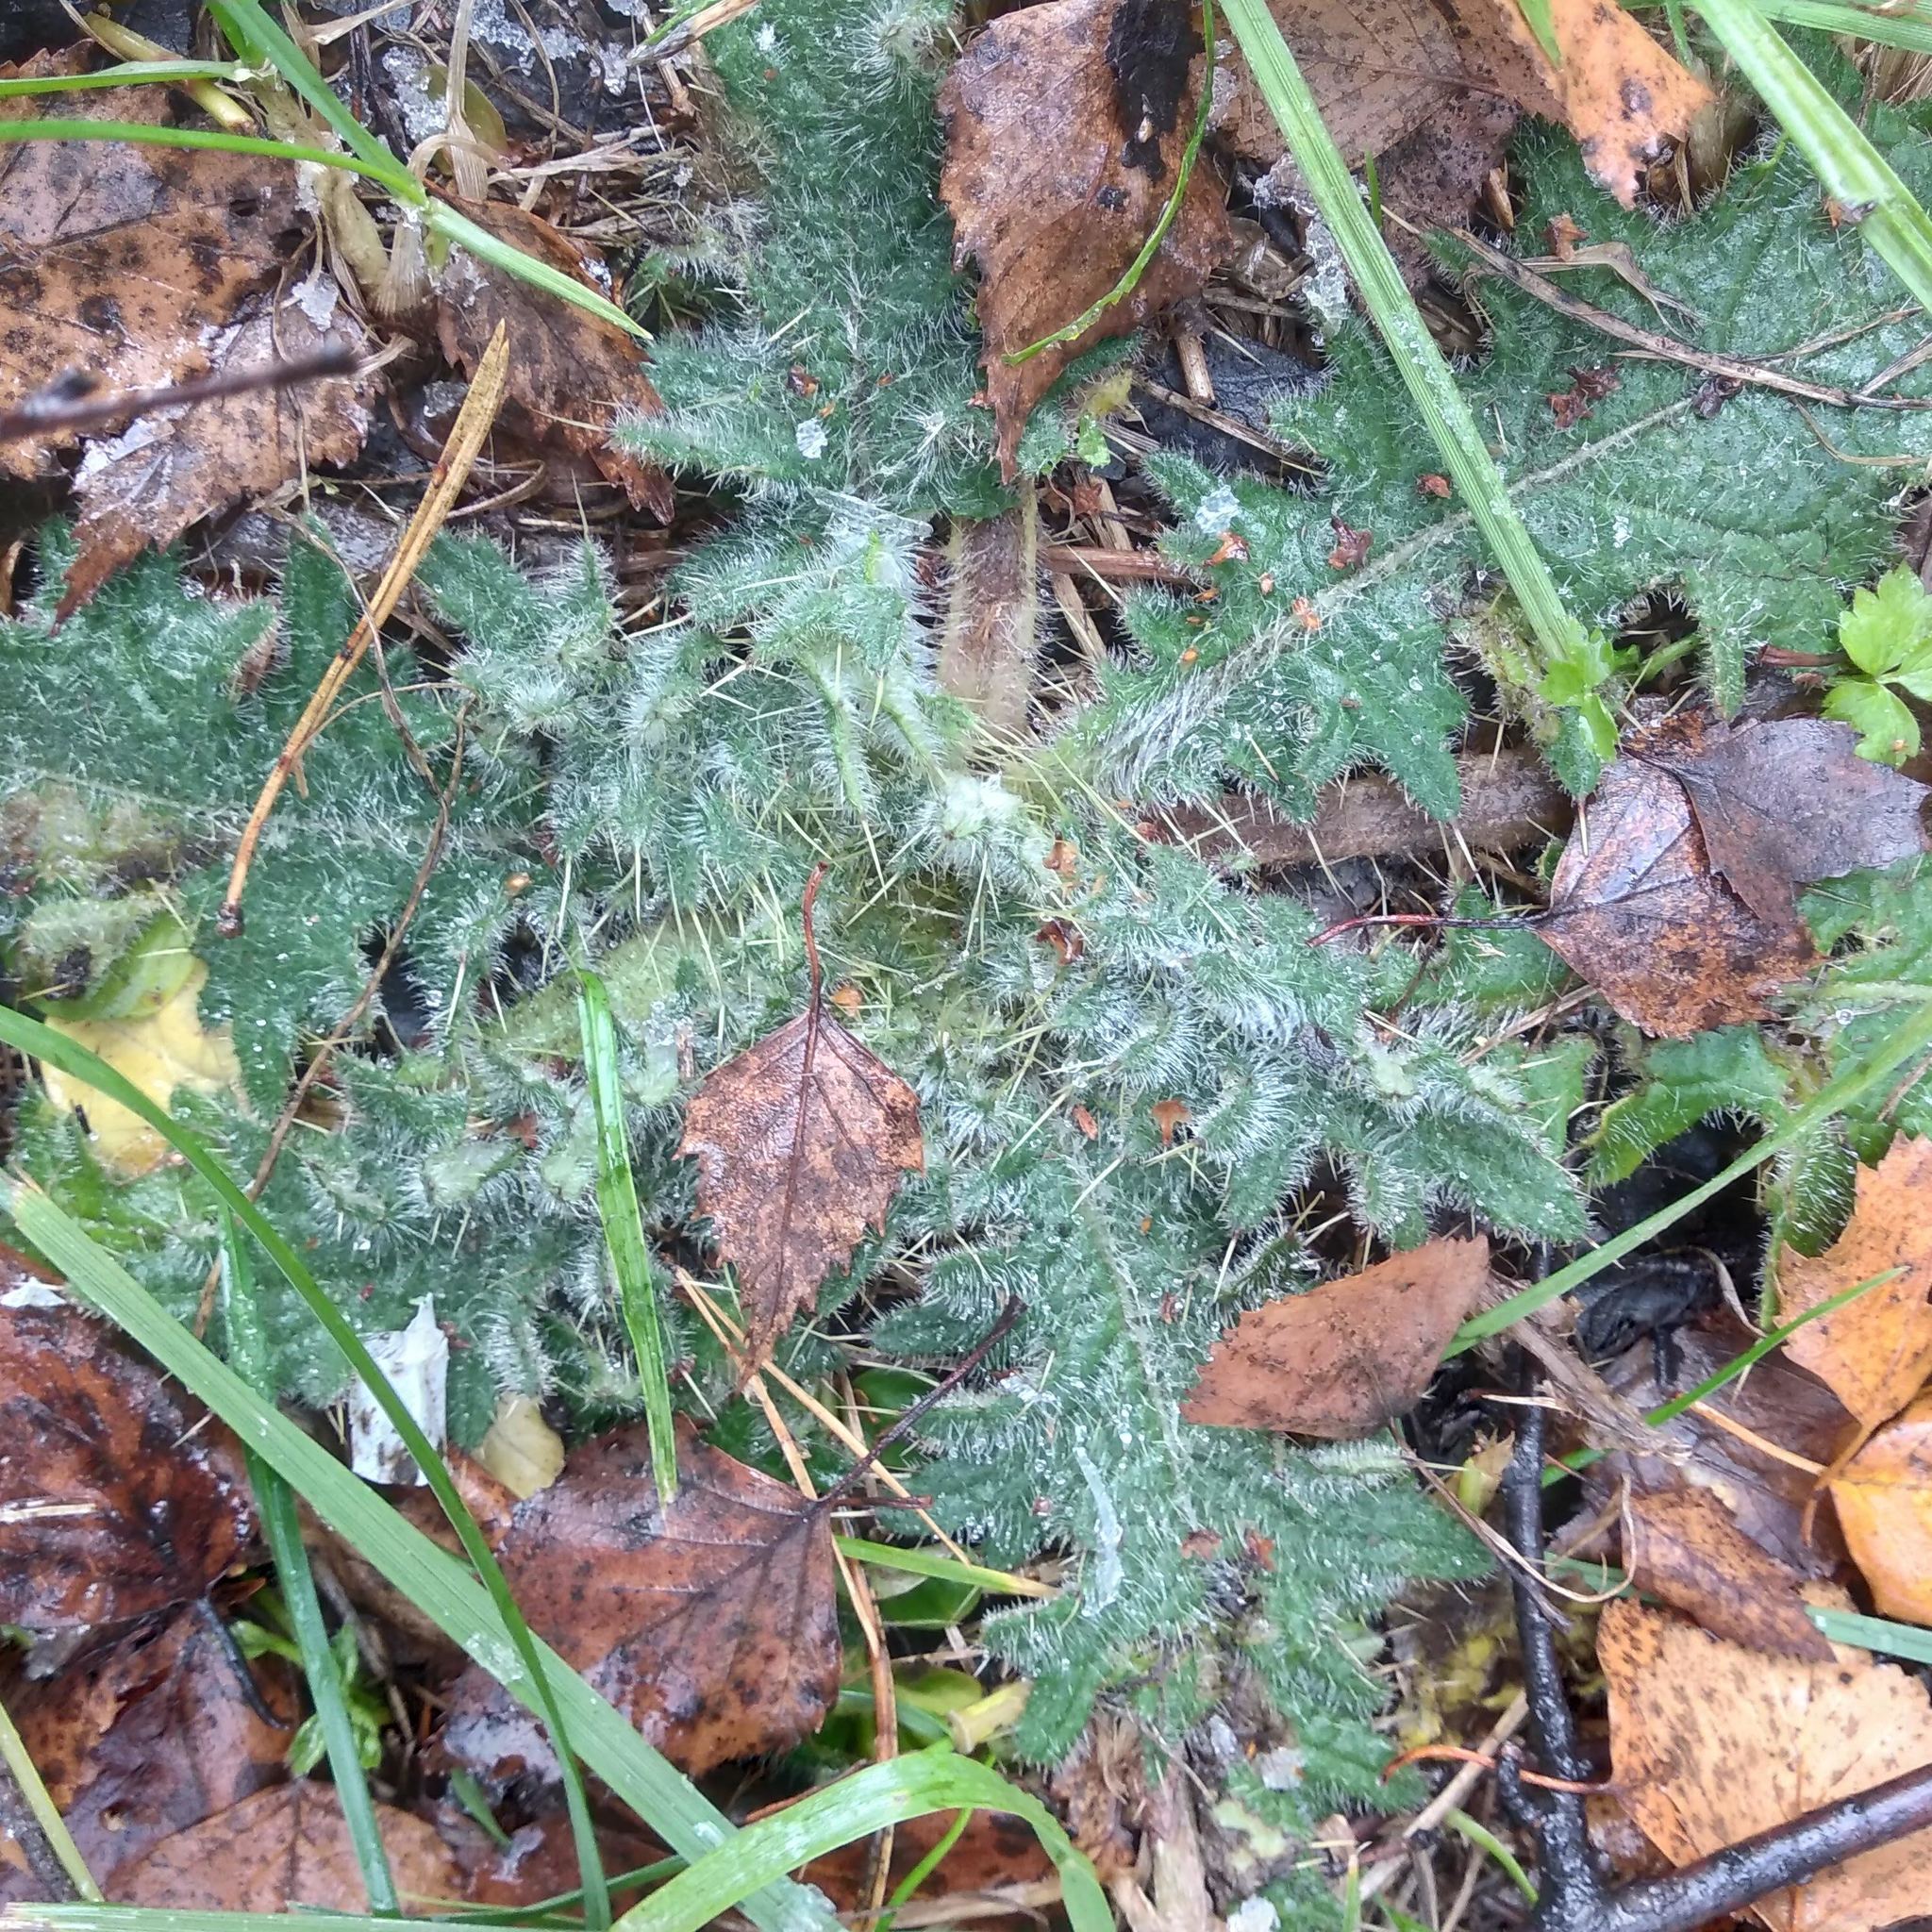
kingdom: Plantae
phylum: Tracheophyta
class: Magnoliopsida
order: Asterales
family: Asteraceae
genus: Cirsium
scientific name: Cirsium vulgare
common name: Bull thistle
